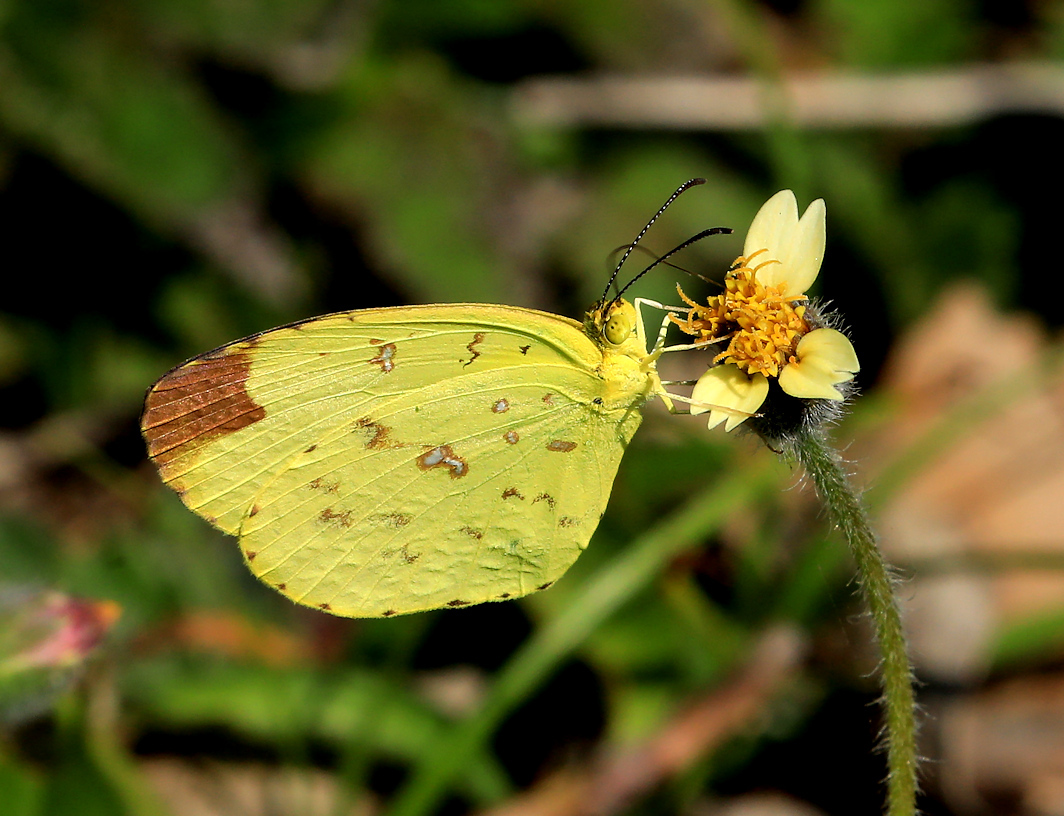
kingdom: Animalia
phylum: Arthropoda
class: Insecta
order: Lepidoptera
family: Pieridae
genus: Eurema
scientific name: Eurema floricola
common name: Malagasy grass yellow
